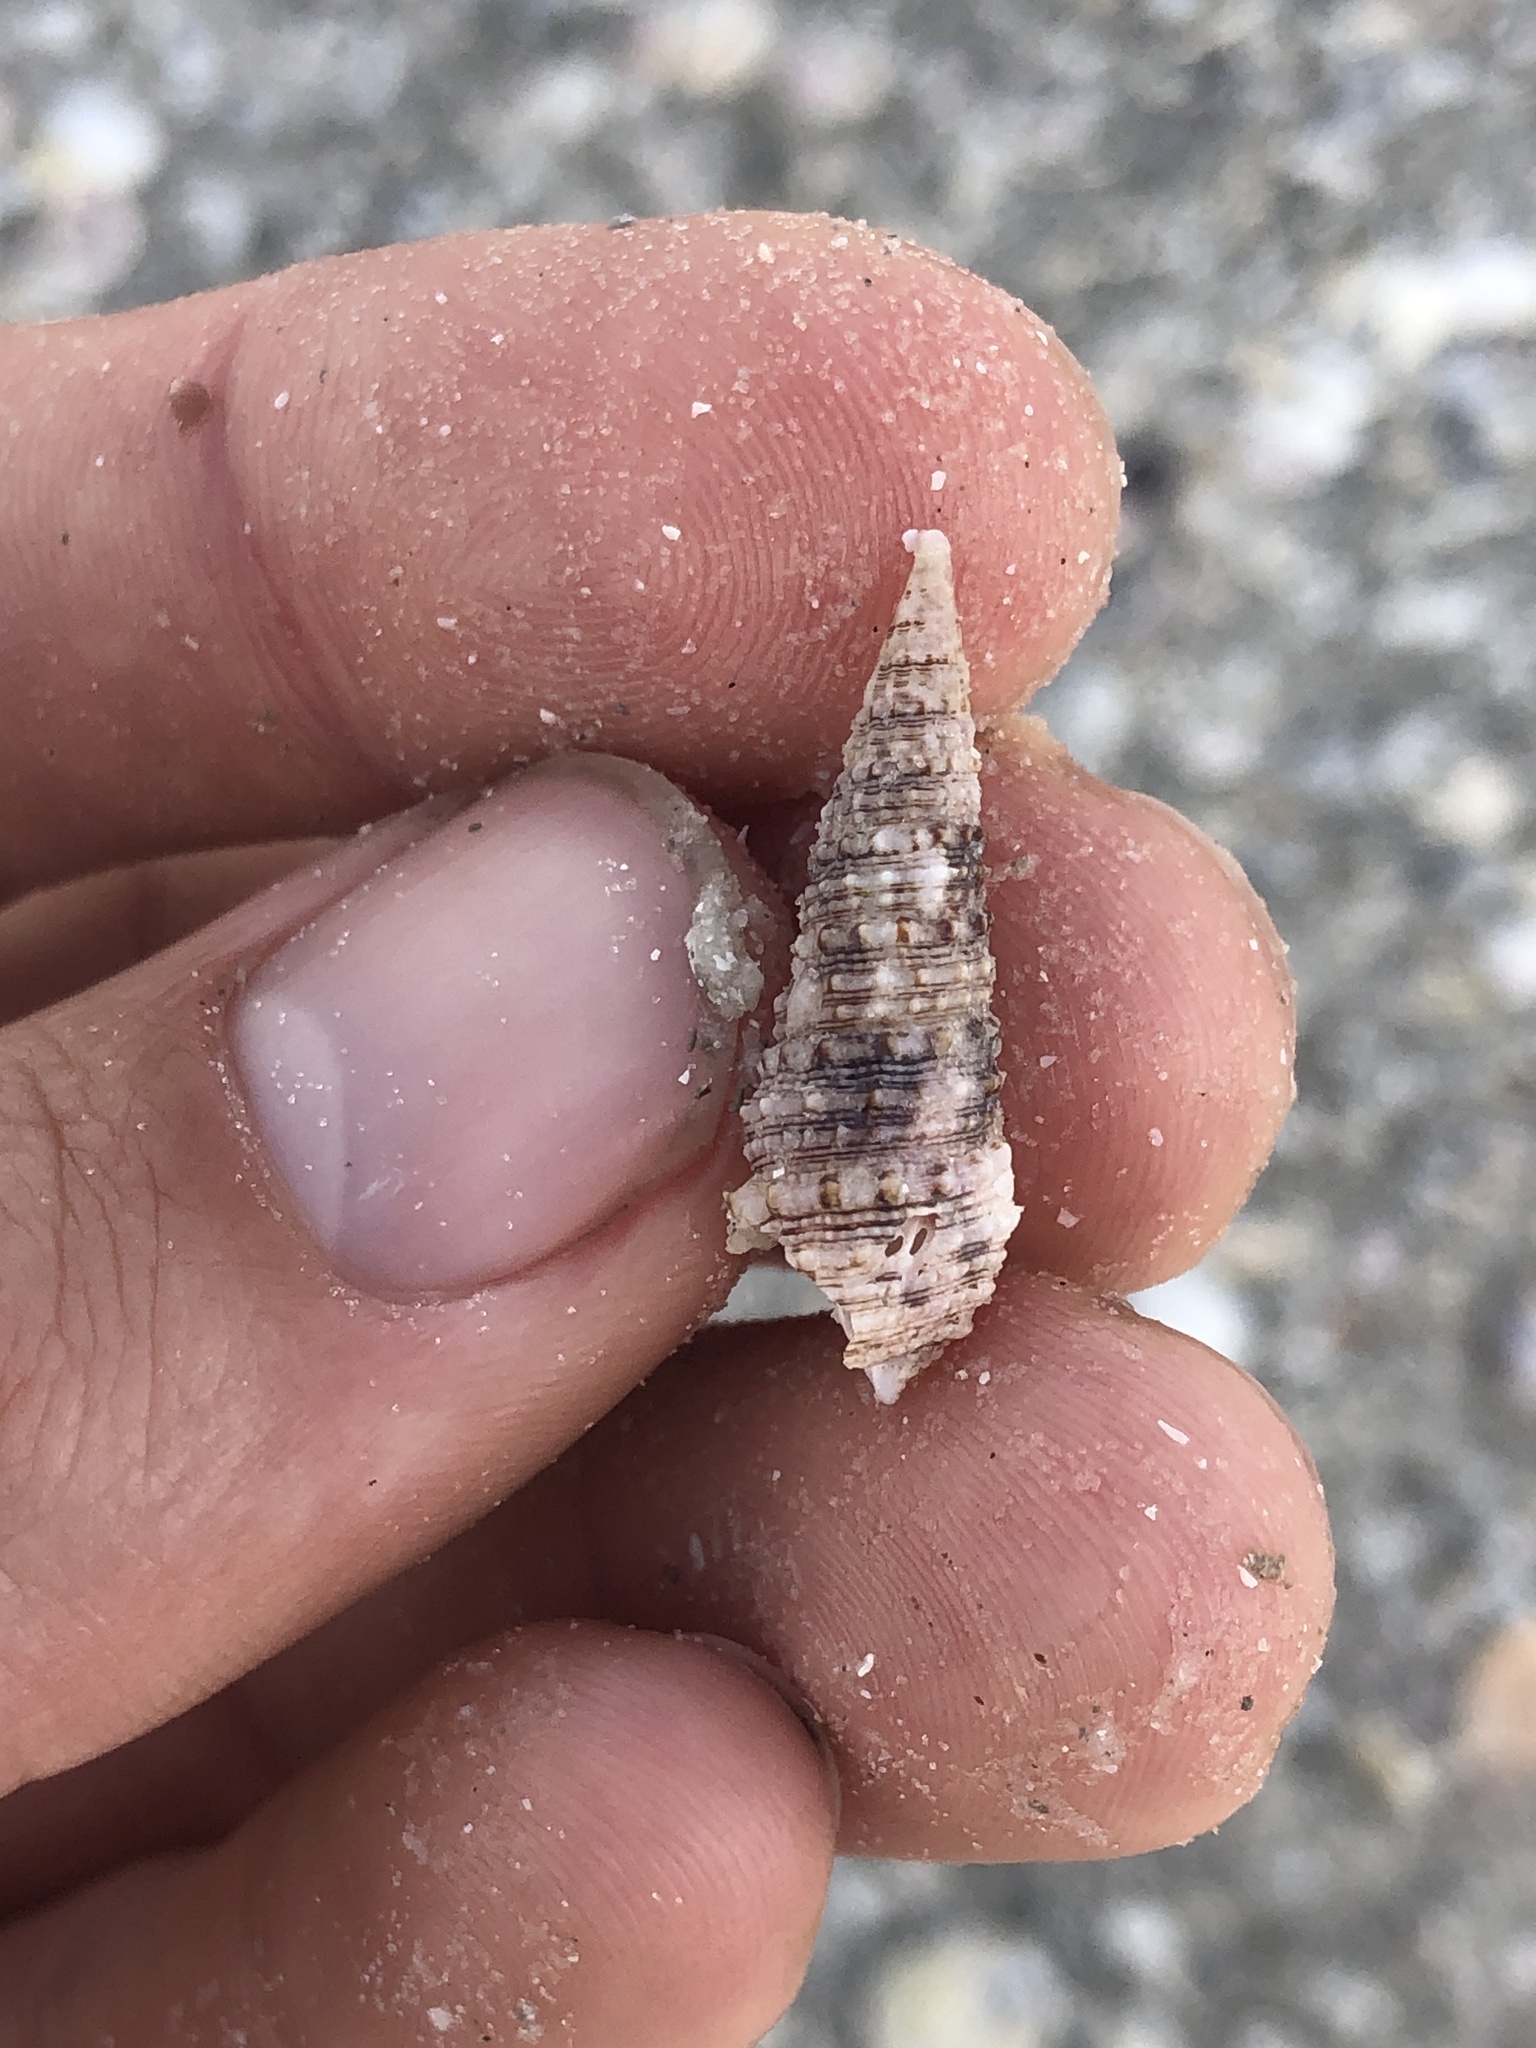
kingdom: Animalia
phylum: Mollusca
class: Gastropoda
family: Cerithiidae
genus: Cerithium
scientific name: Cerithium atratum
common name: Dark cerith
